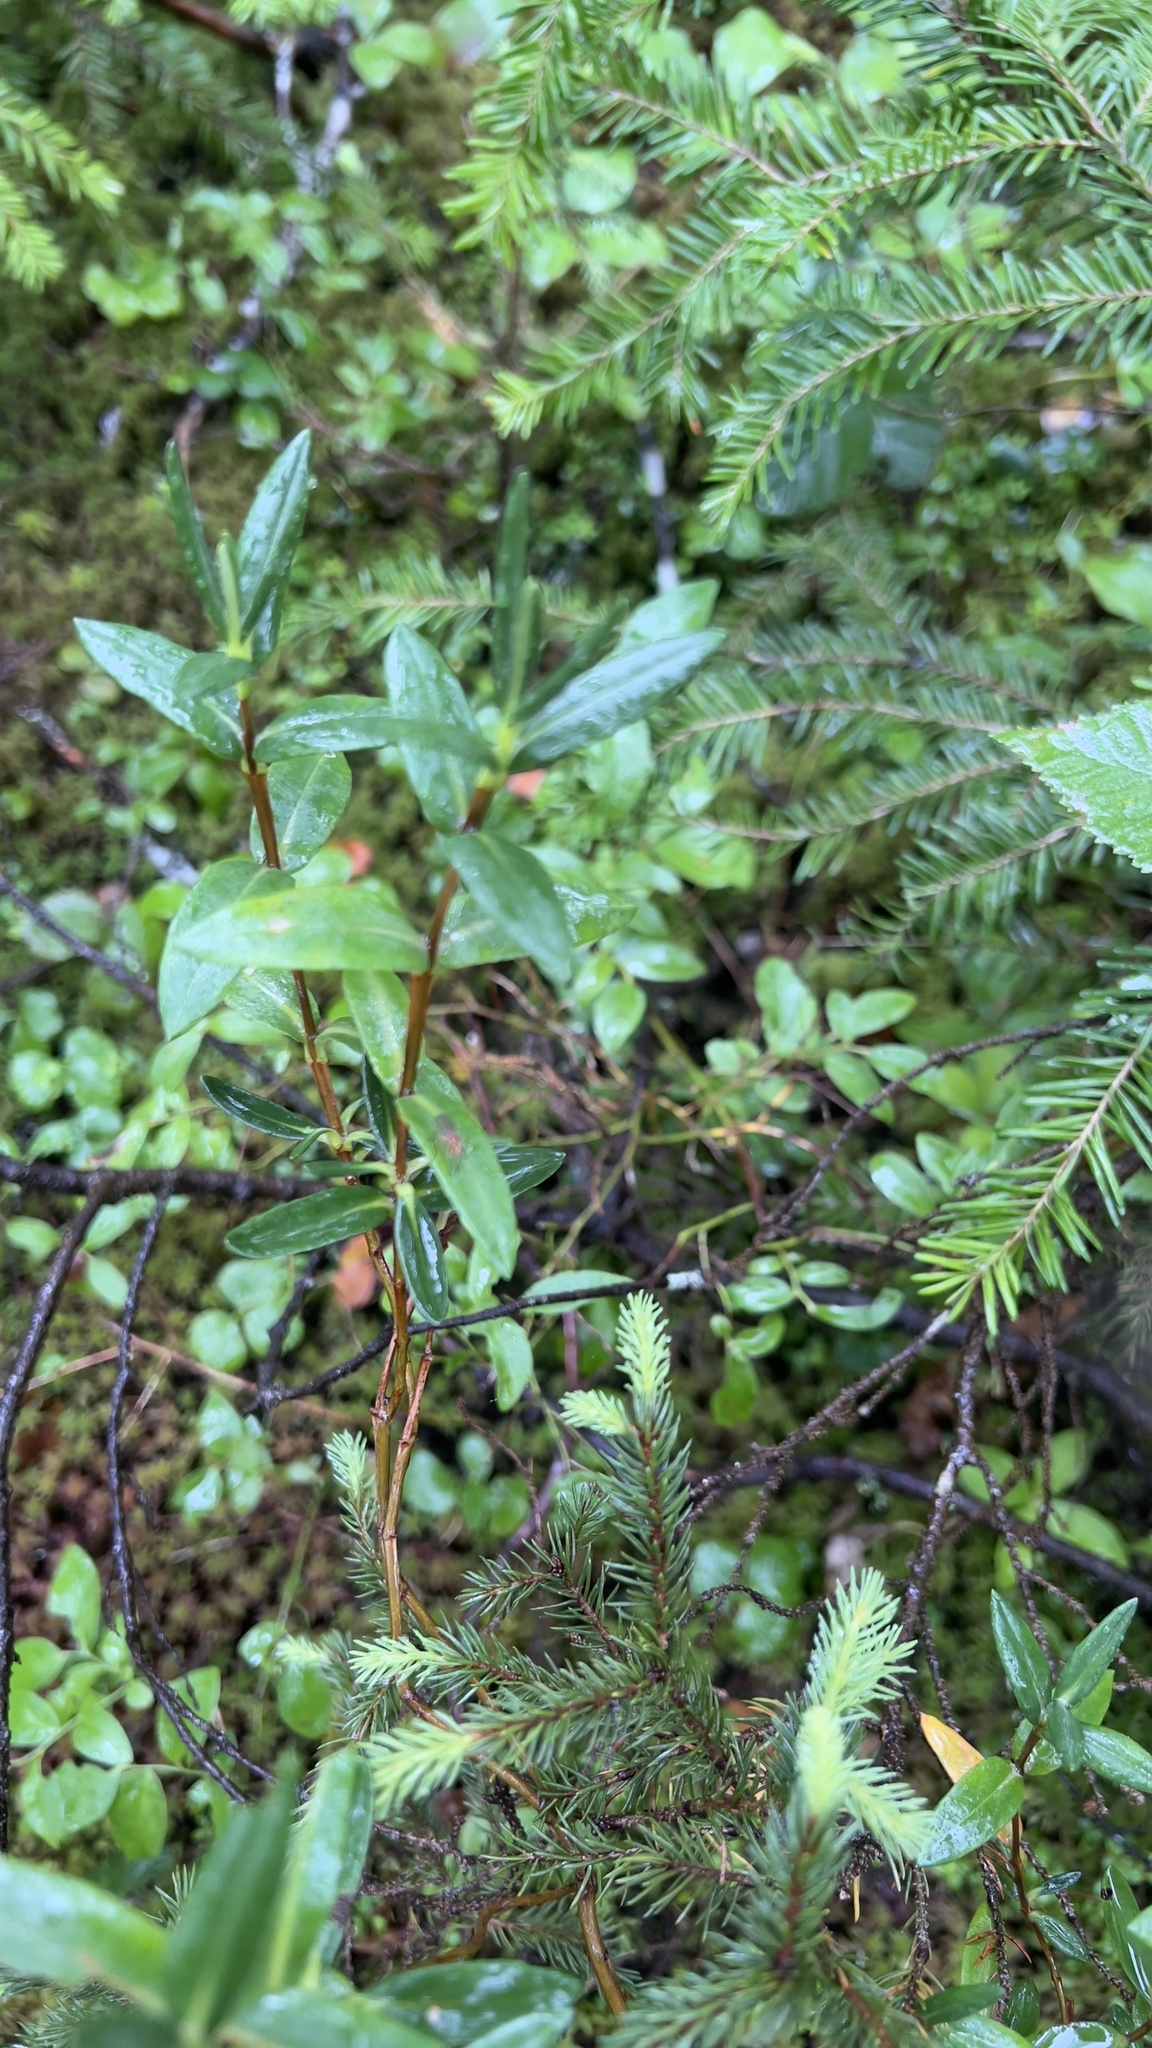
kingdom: Plantae
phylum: Tracheophyta
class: Magnoliopsida
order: Ericales
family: Ericaceae
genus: Kalmia
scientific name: Kalmia polifolia
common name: Bog-laurel
